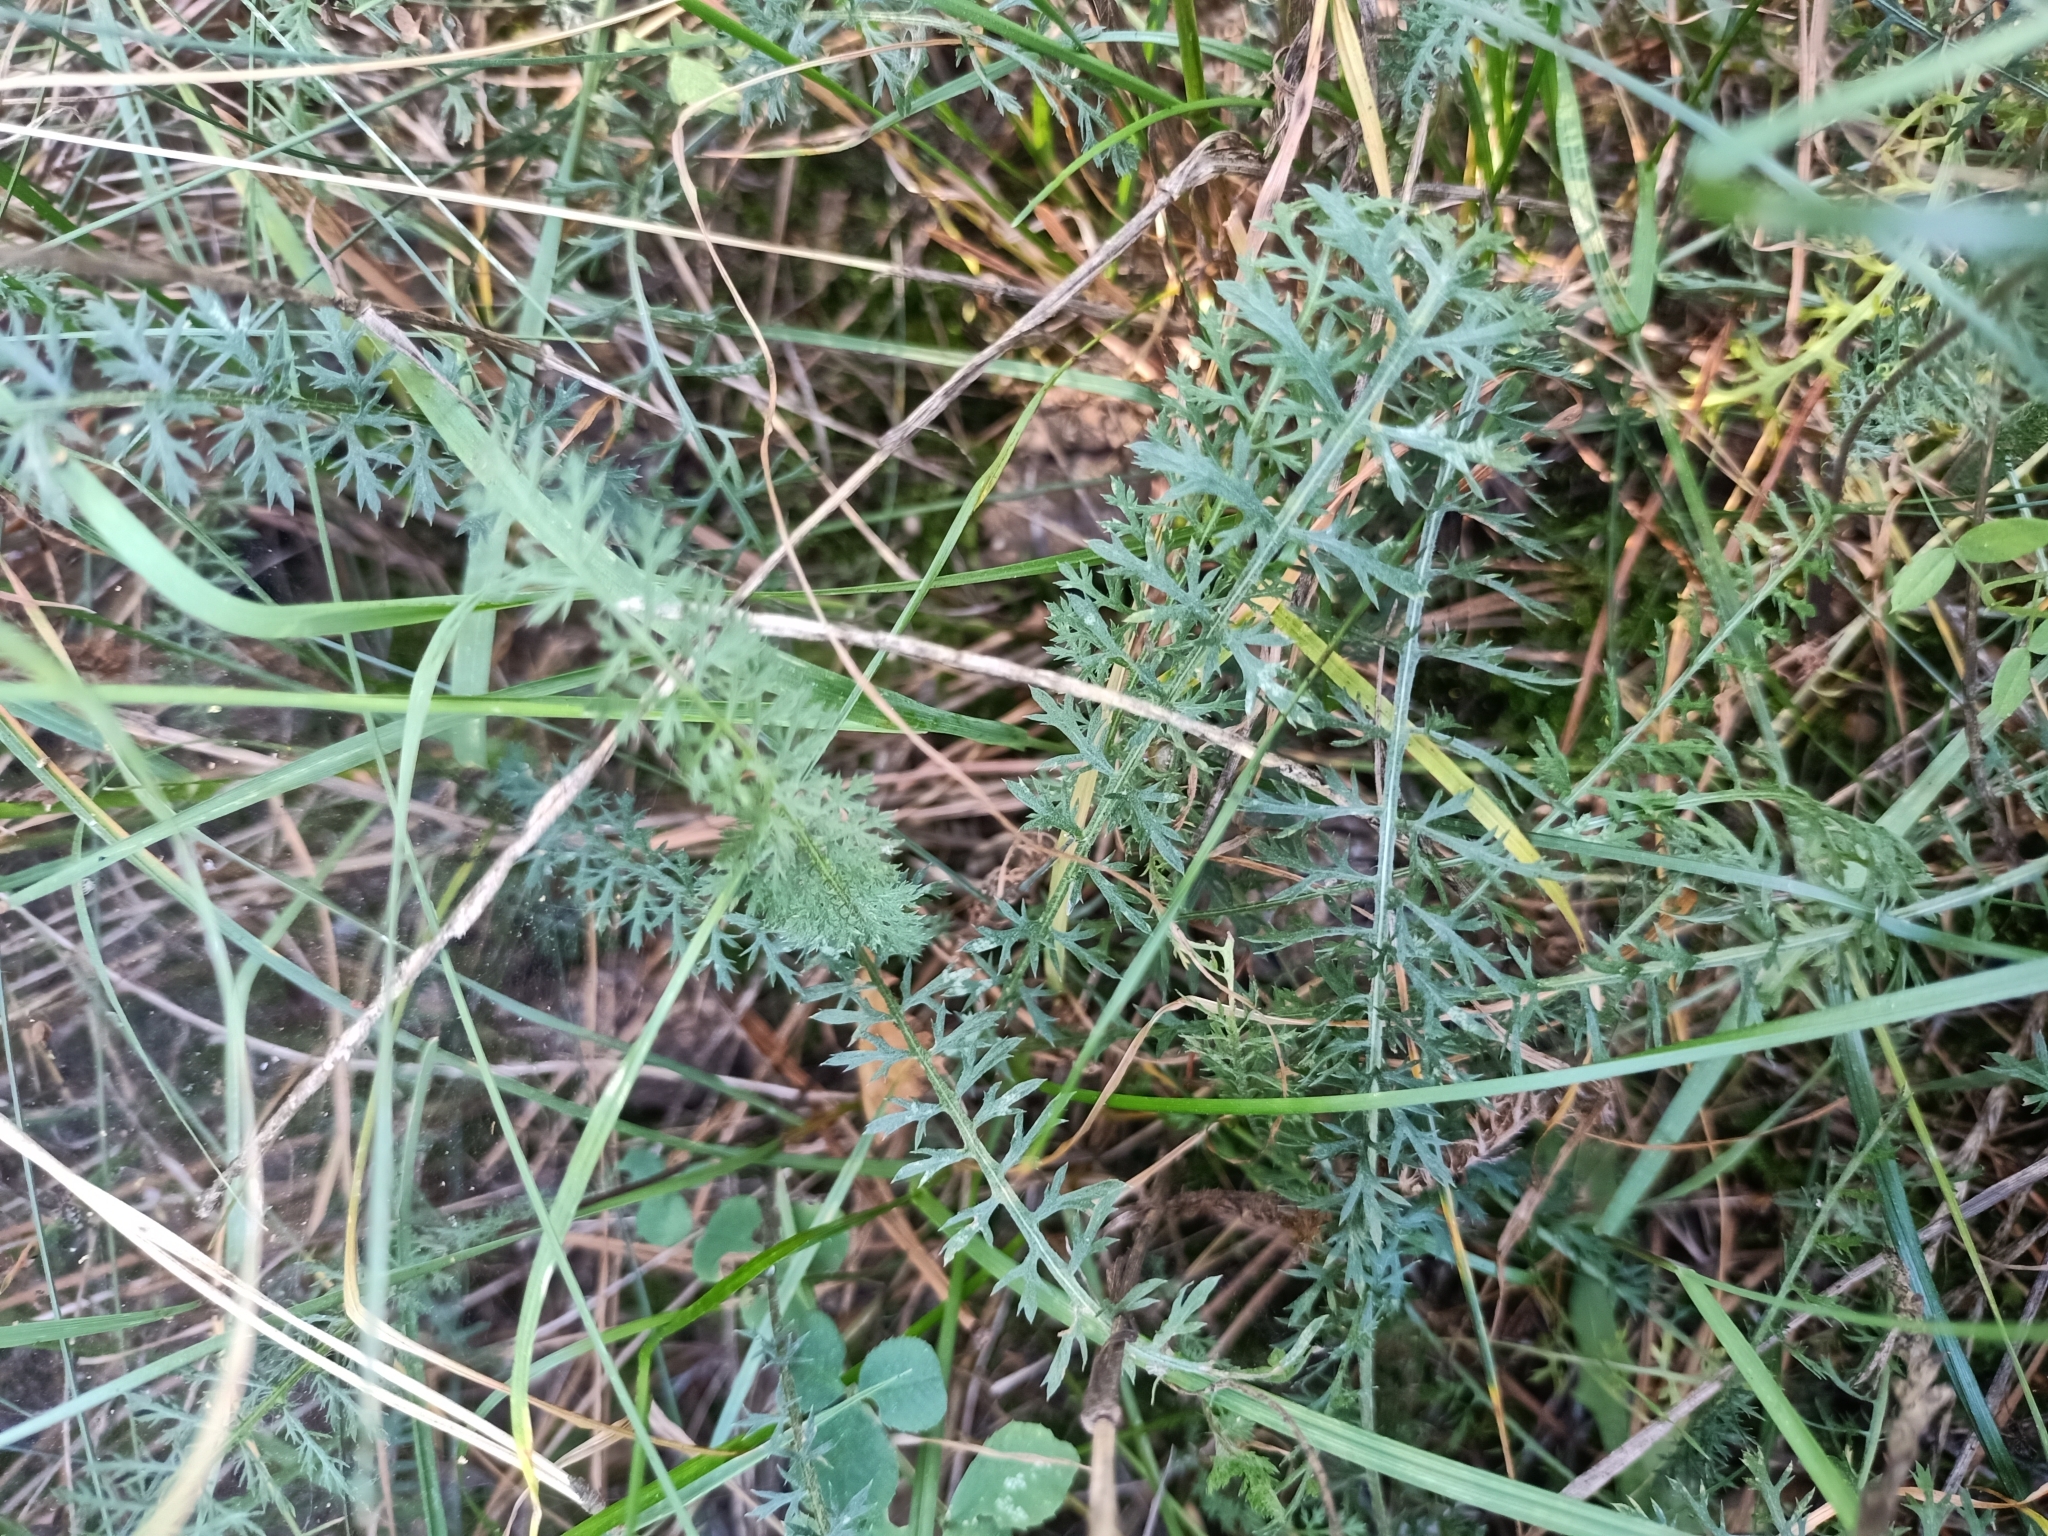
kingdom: Plantae
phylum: Tracheophyta
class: Magnoliopsida
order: Asterales
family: Asteraceae
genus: Achillea
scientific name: Achillea millefolium
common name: Yarrow
